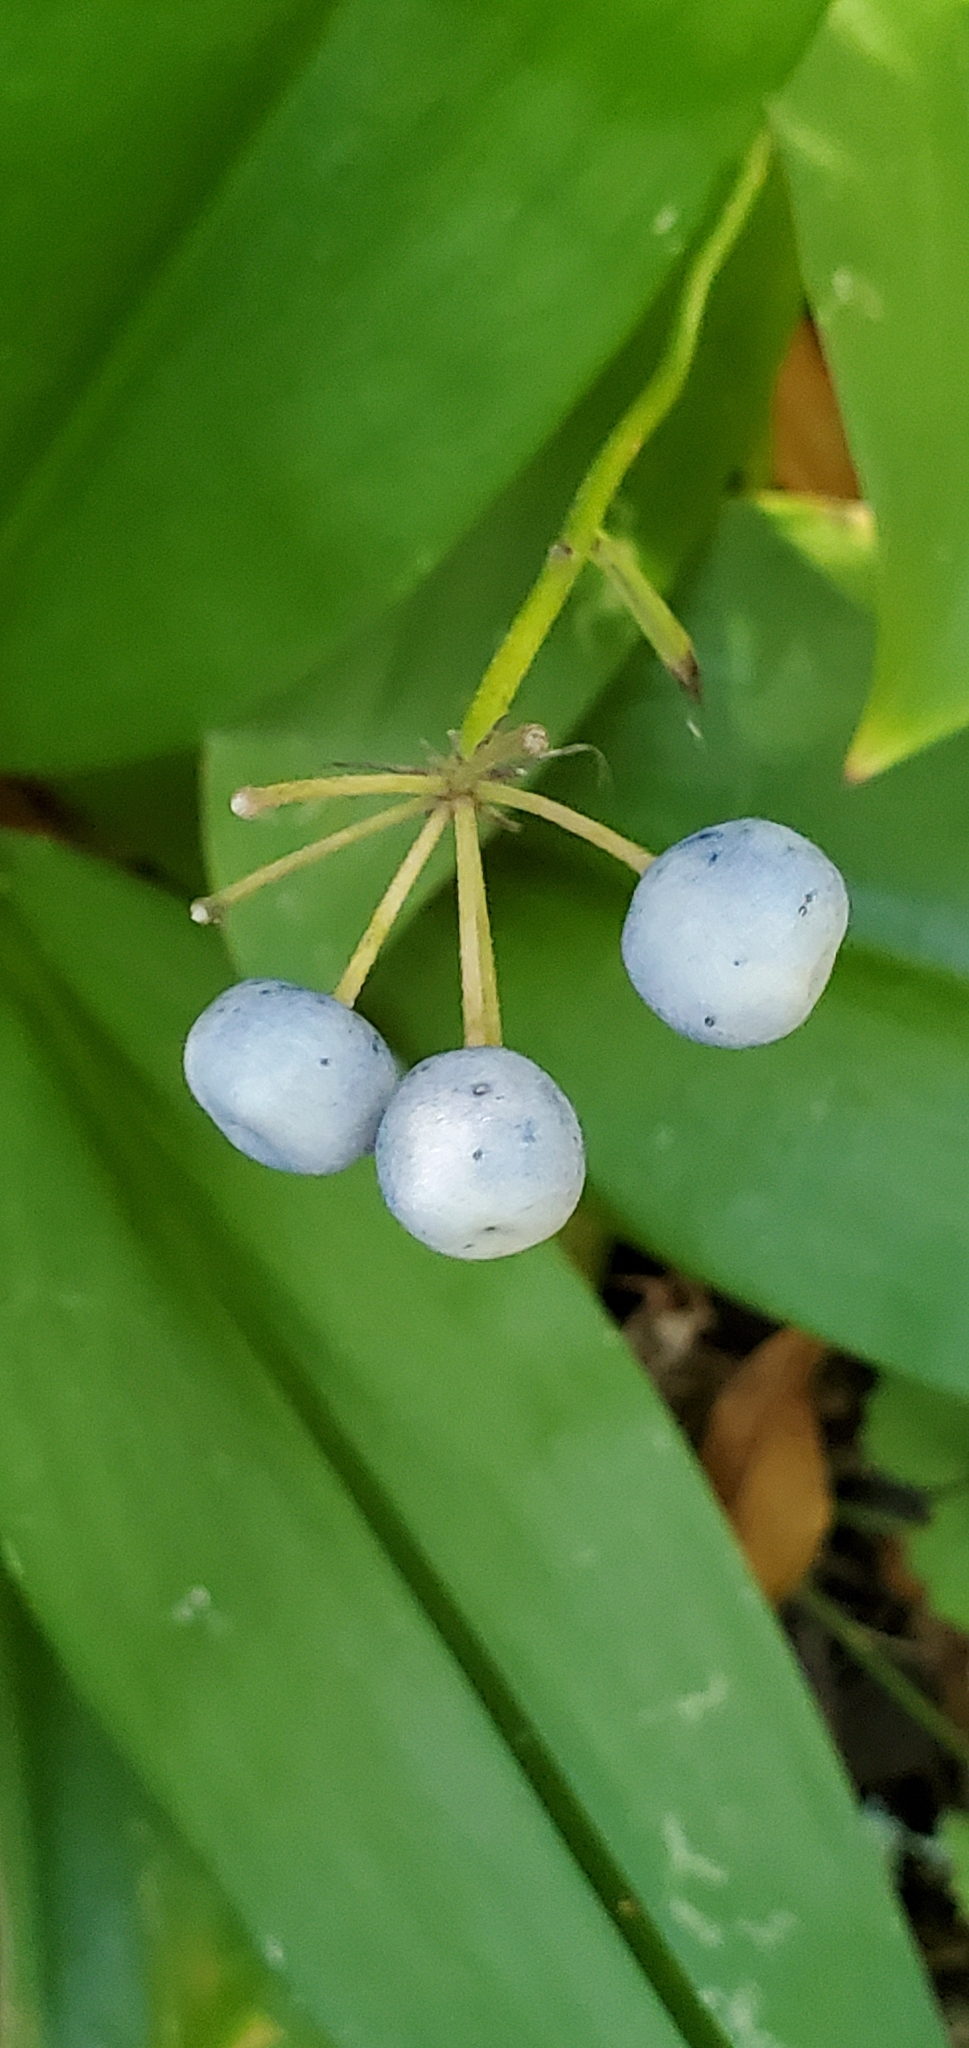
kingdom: Plantae
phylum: Tracheophyta
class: Liliopsida
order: Liliales
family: Liliaceae
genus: Clintonia
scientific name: Clintonia andrewsiana
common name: Red clintonia
